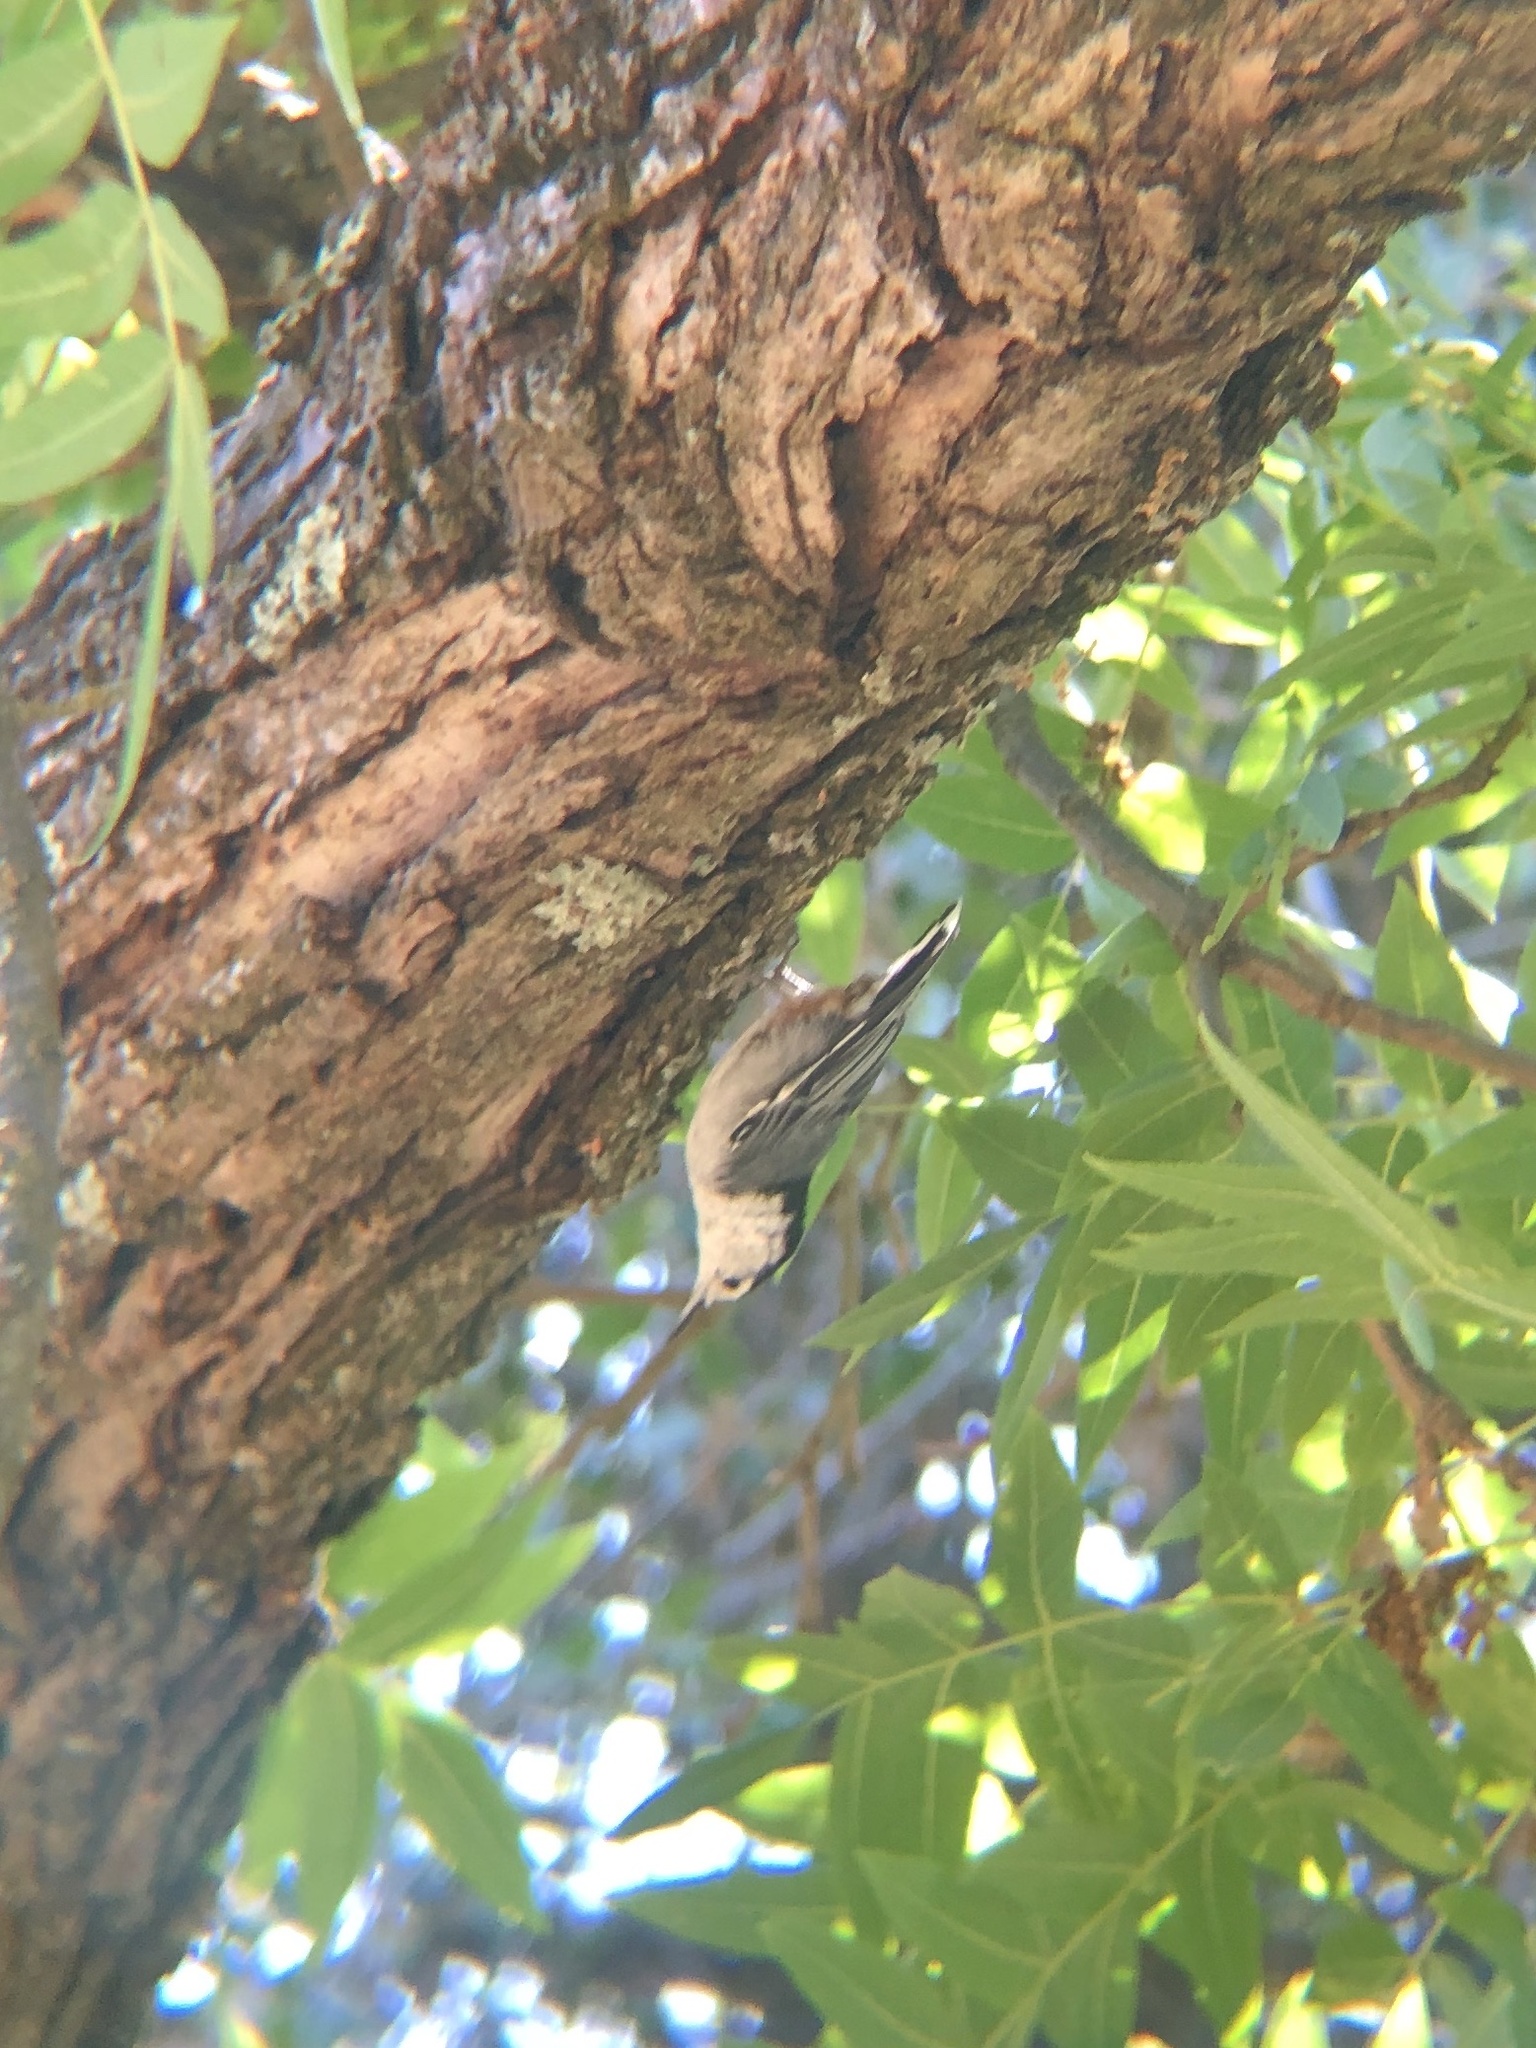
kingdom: Animalia
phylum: Chordata
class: Aves
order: Passeriformes
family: Sittidae
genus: Sitta
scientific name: Sitta carolinensis
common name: White-breasted nuthatch
